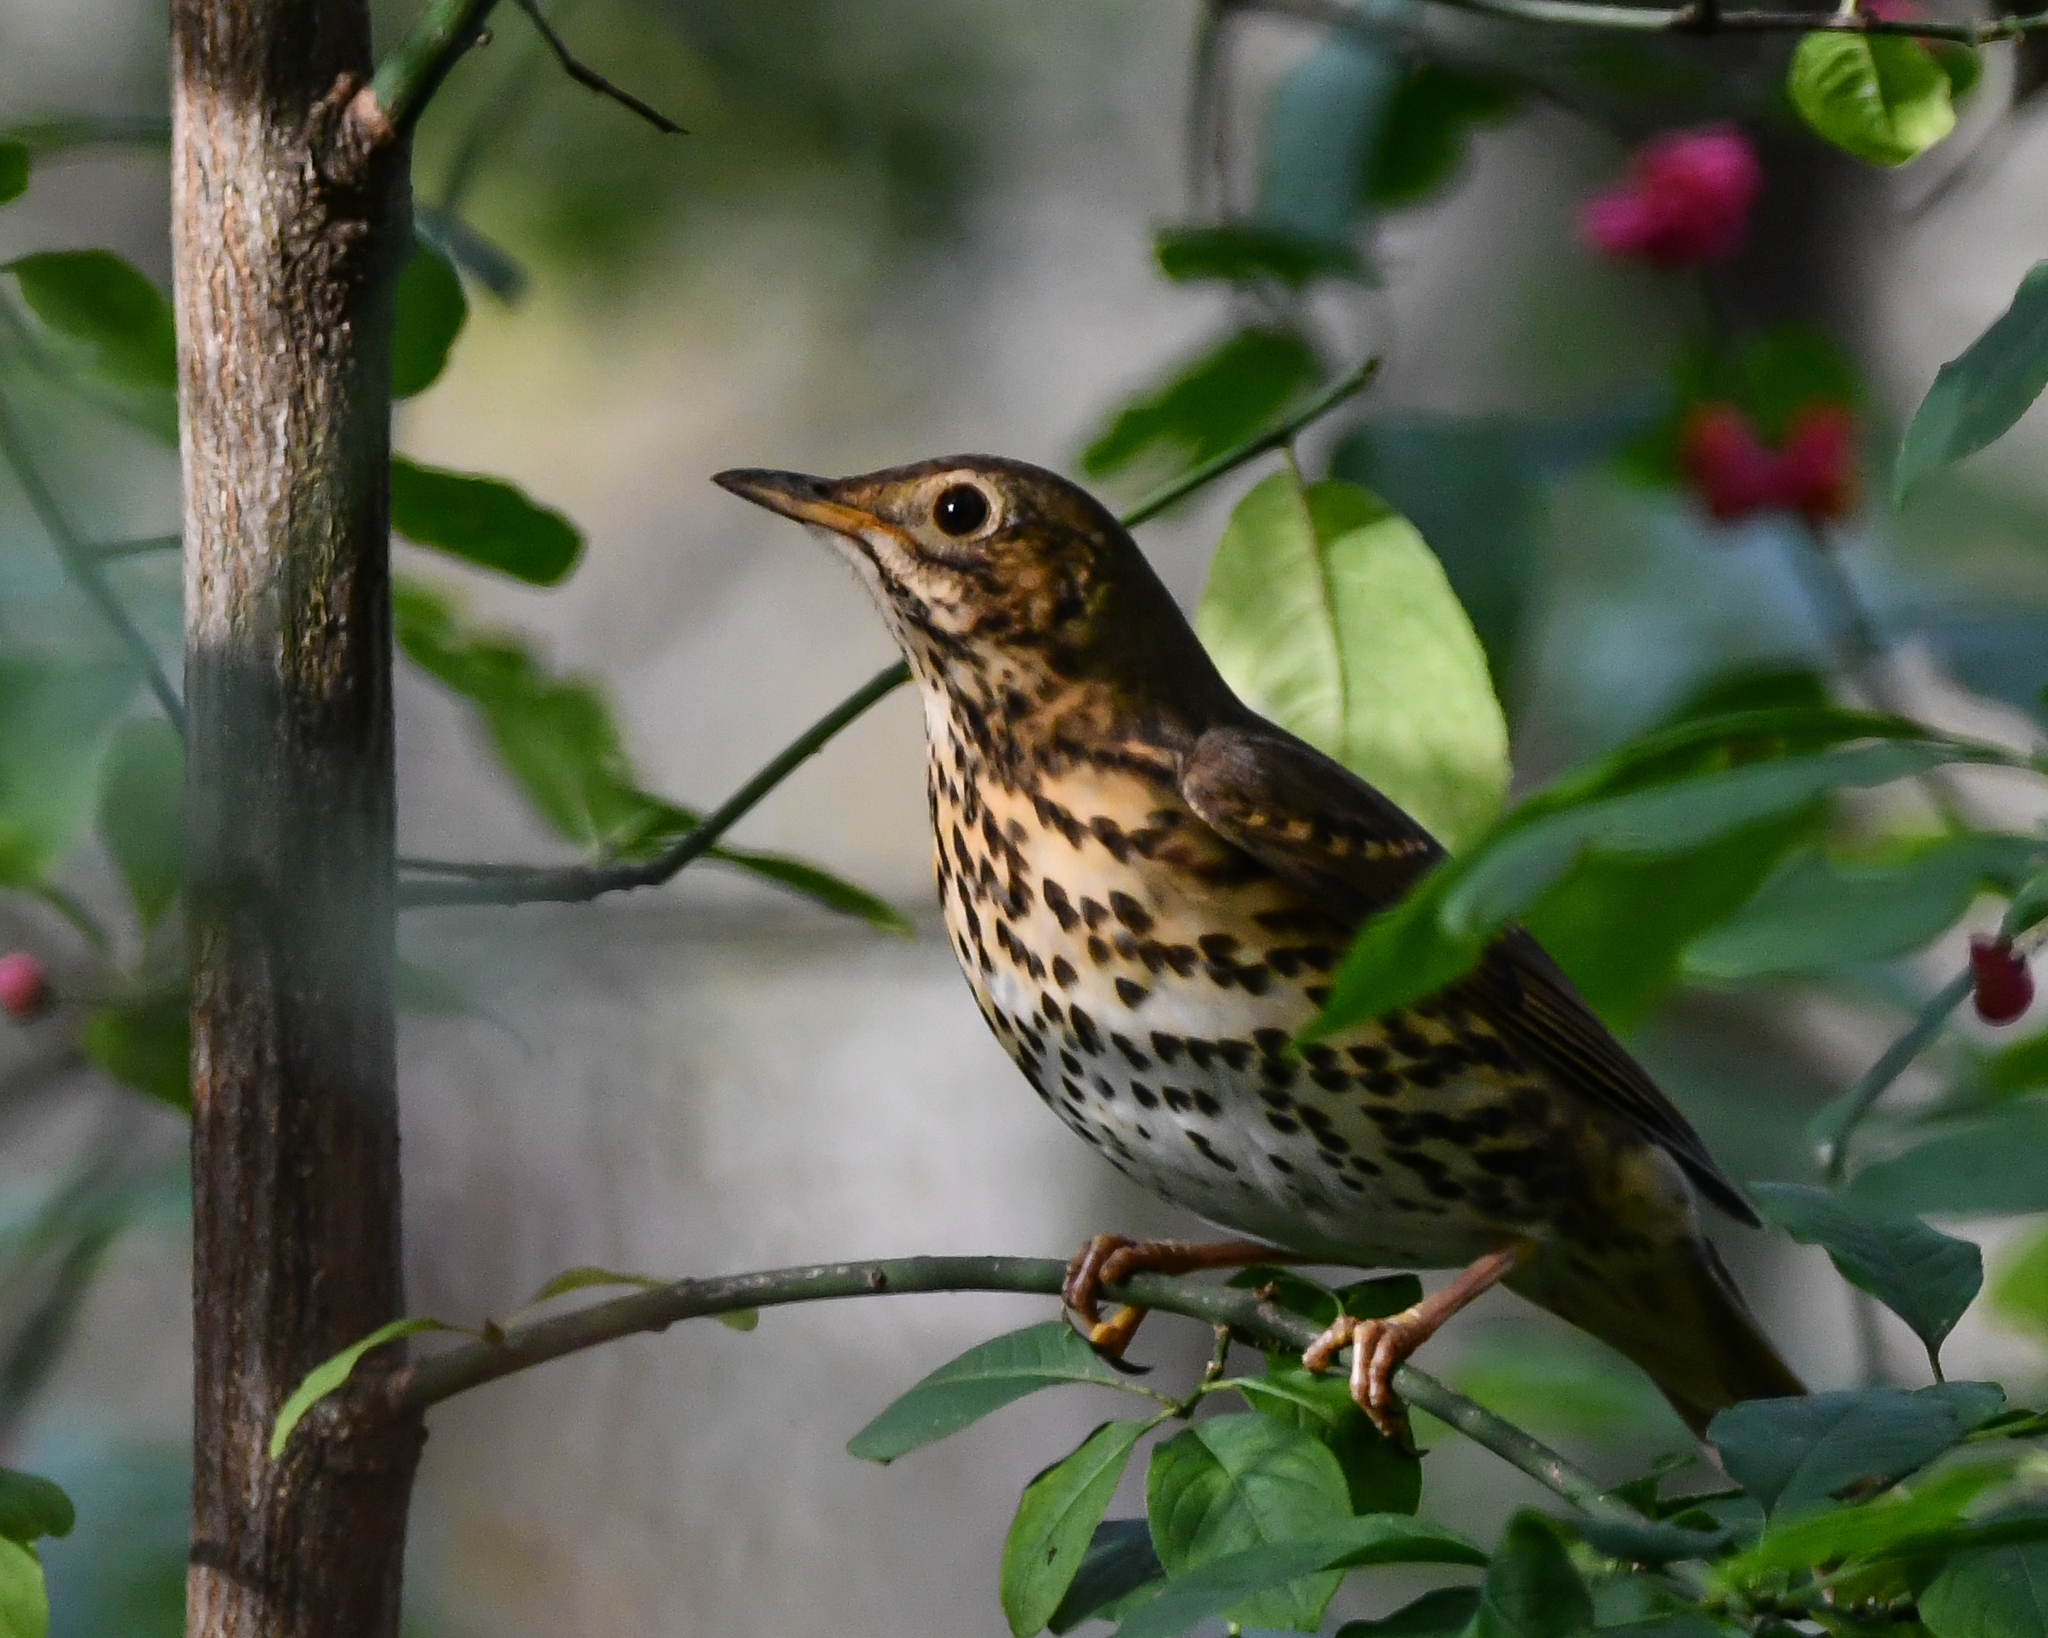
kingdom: Animalia
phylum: Chordata
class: Aves
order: Passeriformes
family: Turdidae
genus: Turdus
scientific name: Turdus philomelos
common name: Song thrush
